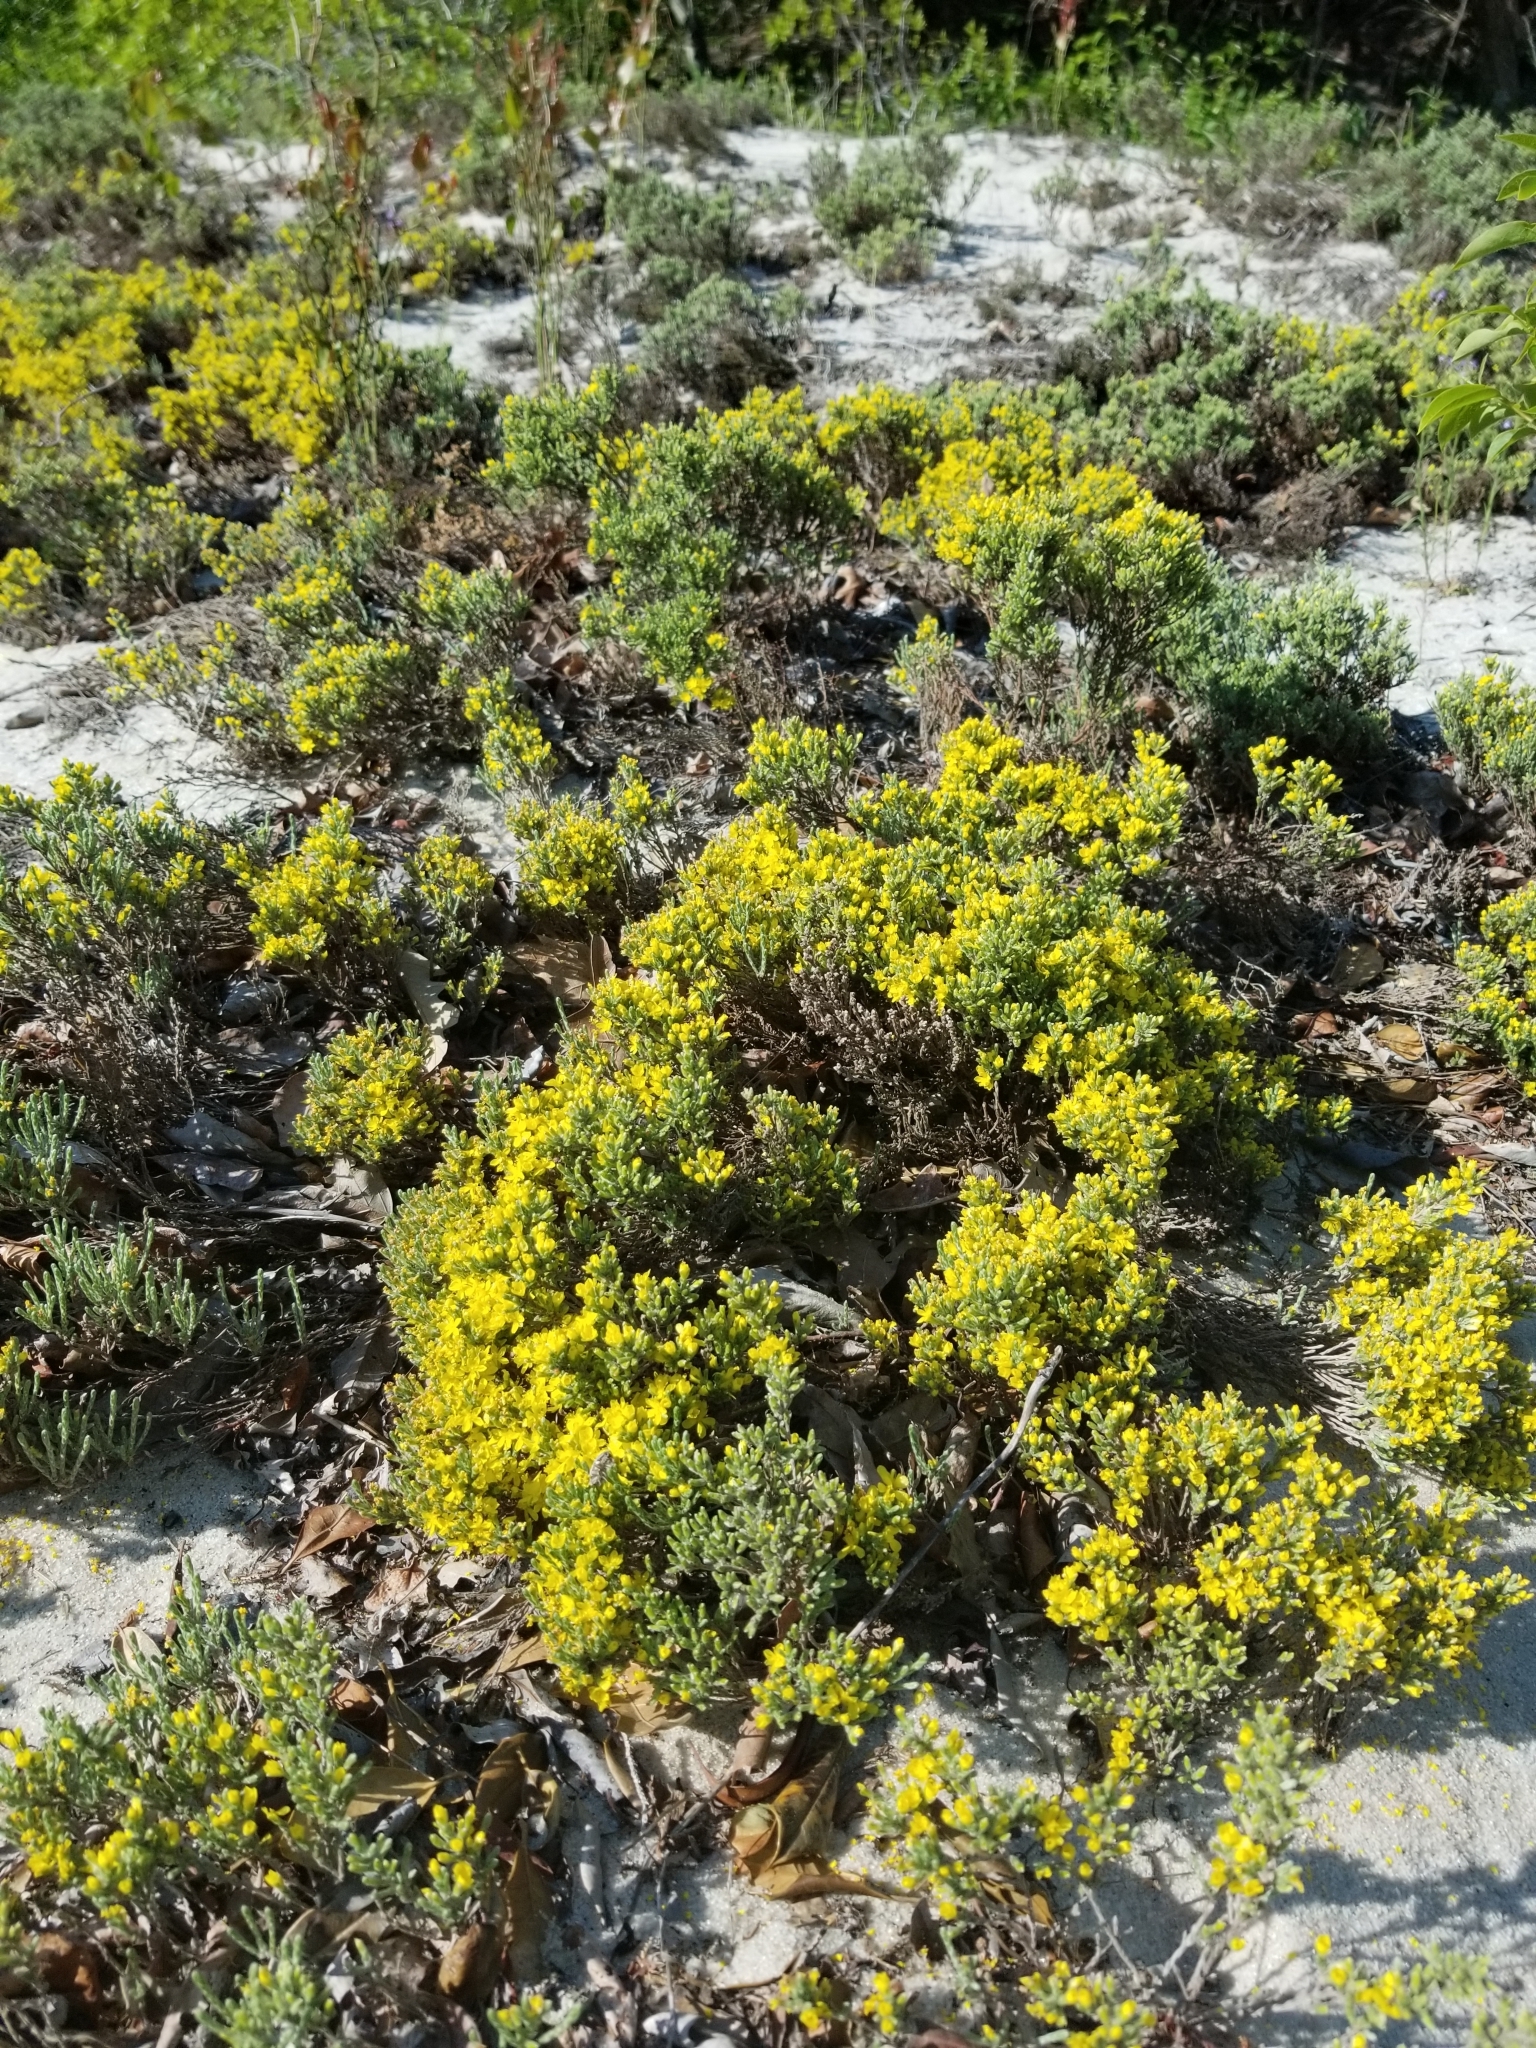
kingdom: Plantae
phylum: Tracheophyta
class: Magnoliopsida
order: Malvales
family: Cistaceae
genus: Hudsonia
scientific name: Hudsonia tomentosa
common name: Beach-heath
